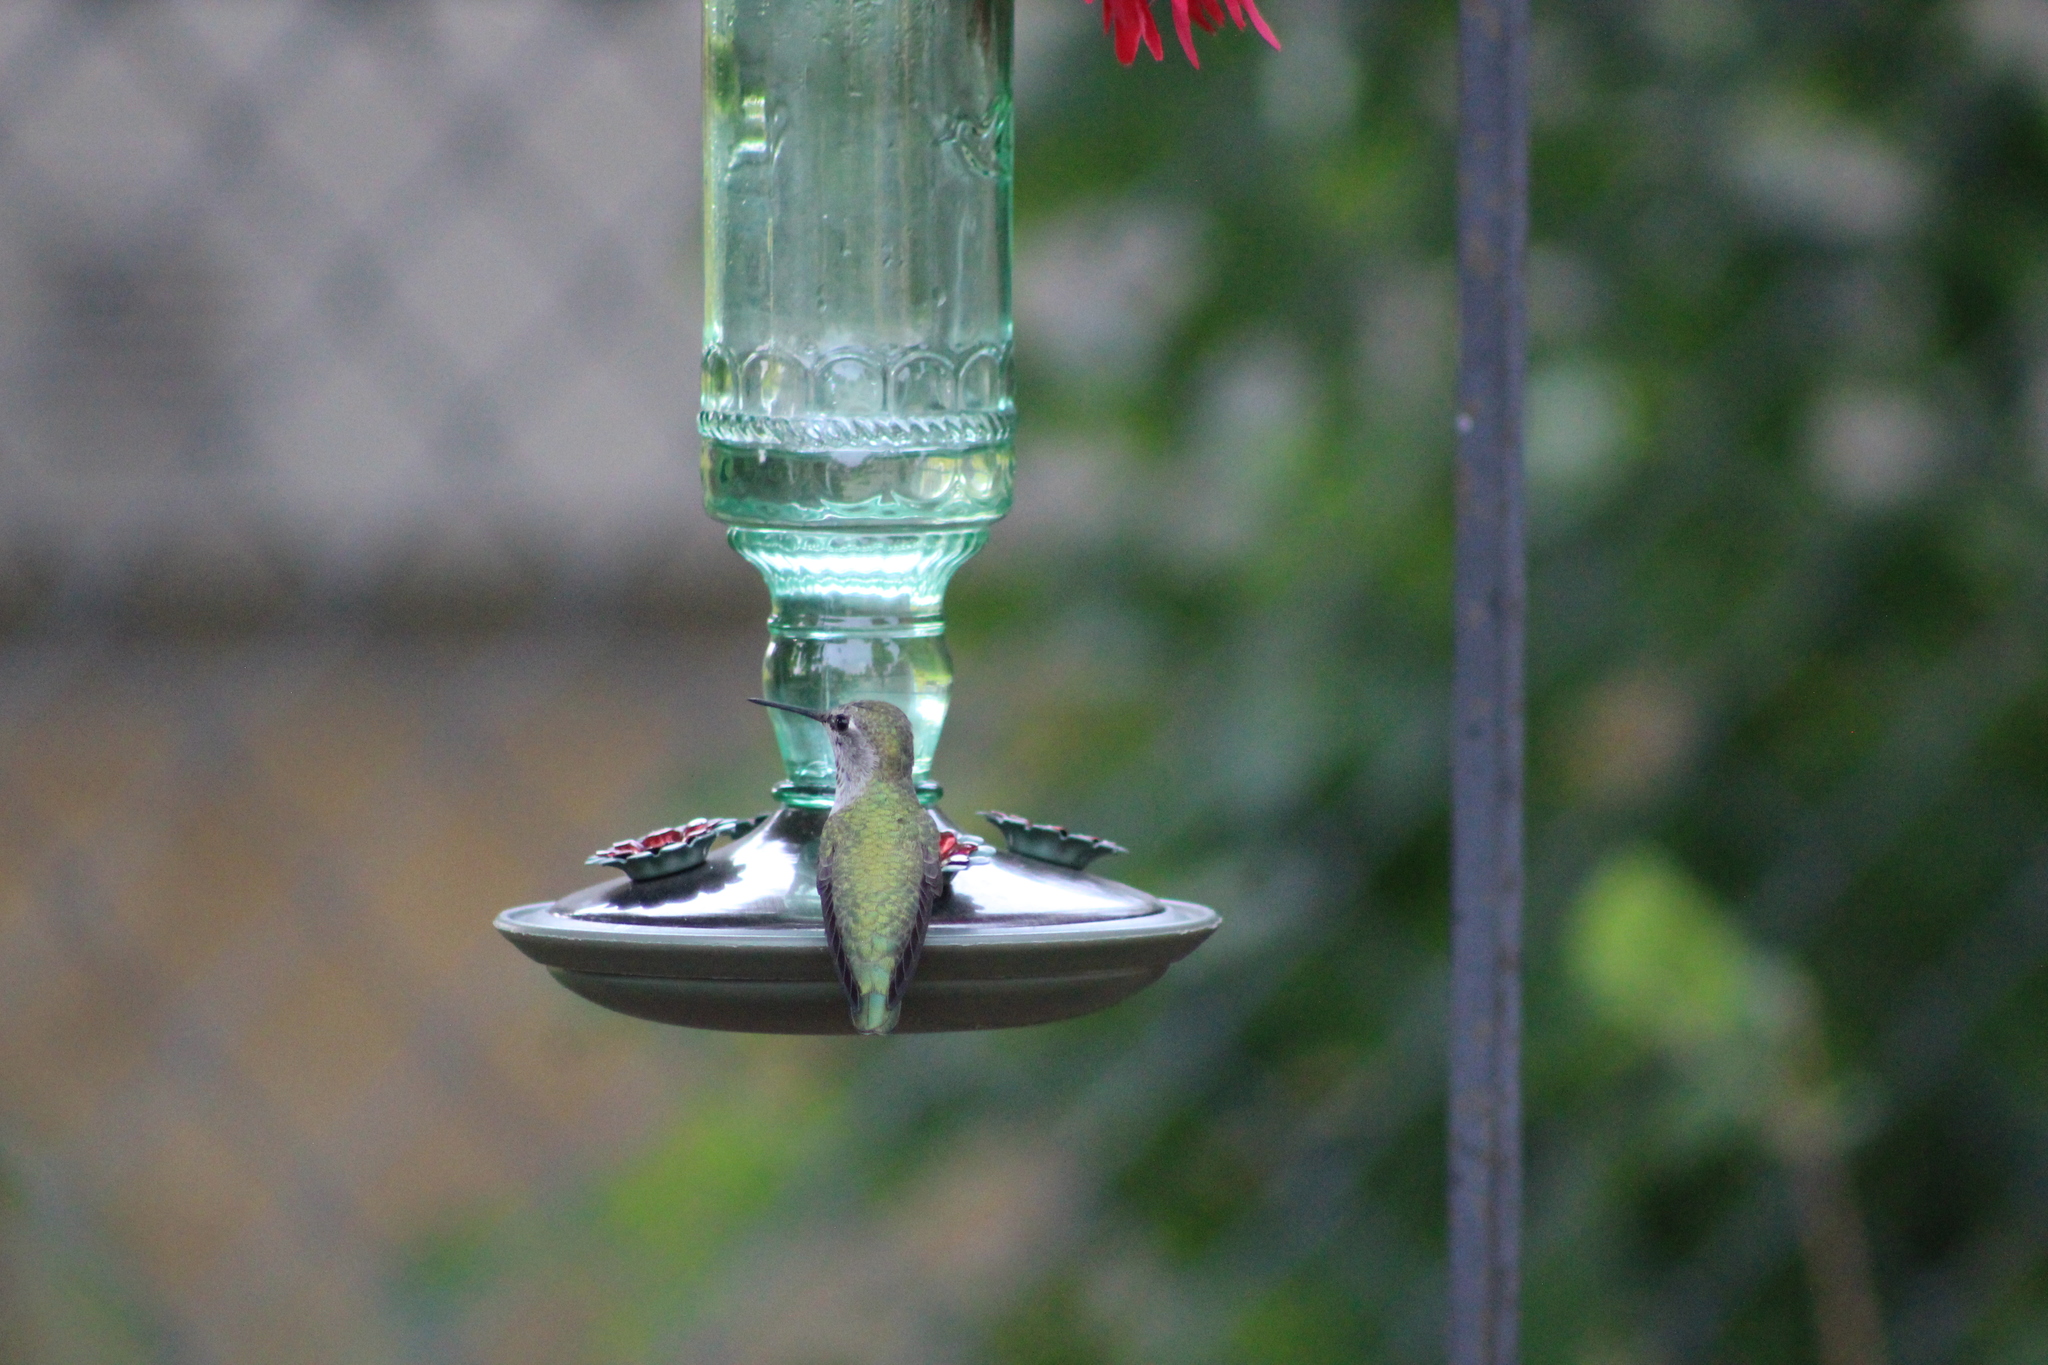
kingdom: Animalia
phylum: Chordata
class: Aves
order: Apodiformes
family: Trochilidae
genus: Calypte
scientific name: Calypte anna
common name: Anna's hummingbird
